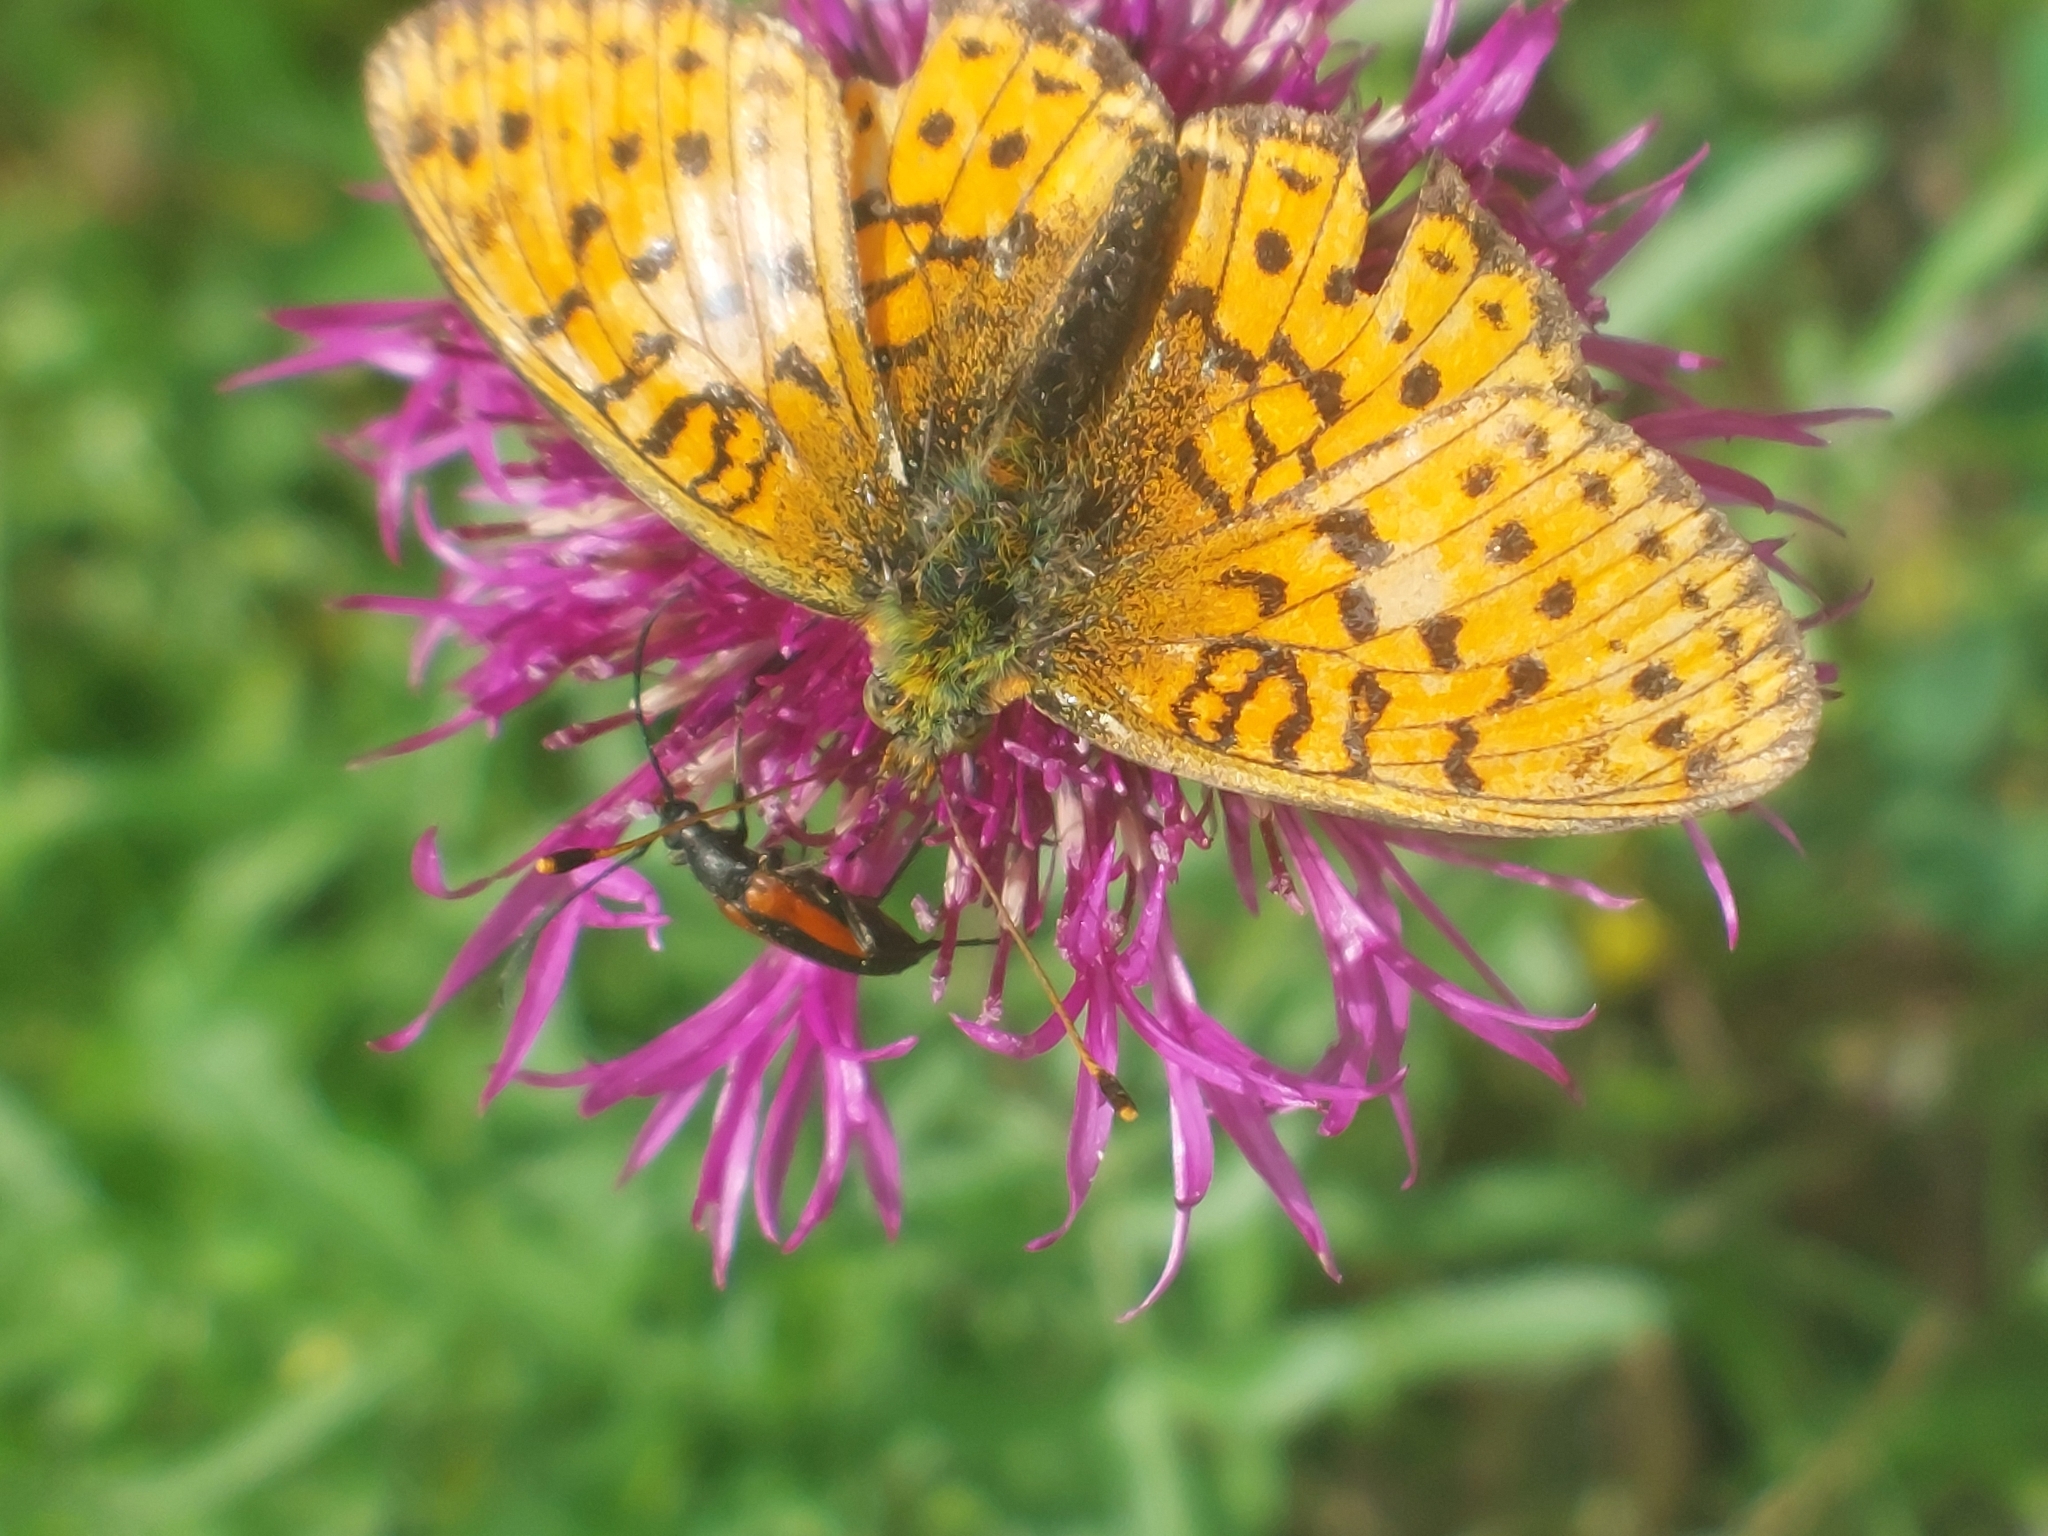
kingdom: Animalia
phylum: Arthropoda
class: Insecta
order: Lepidoptera
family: Nymphalidae
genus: Brenthis
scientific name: Brenthis ino
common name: Lesser marbled fritillary
